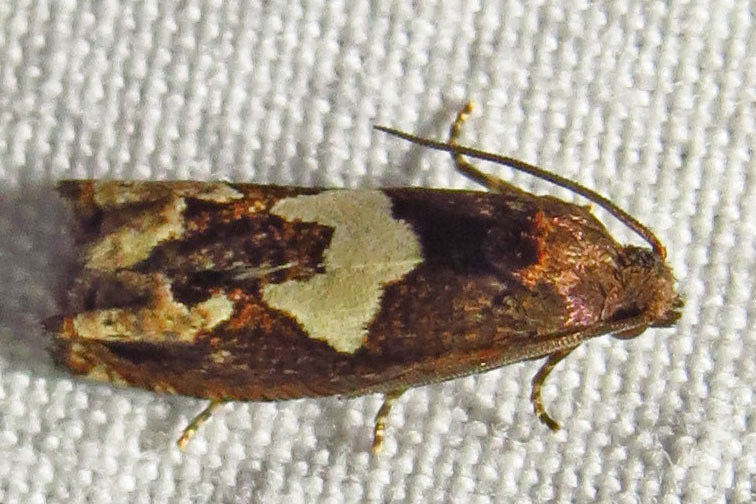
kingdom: Animalia
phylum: Arthropoda
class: Insecta
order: Lepidoptera
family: Tortricidae
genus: Epiblema
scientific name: Epiblema otiosana
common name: Bidens borer moth
